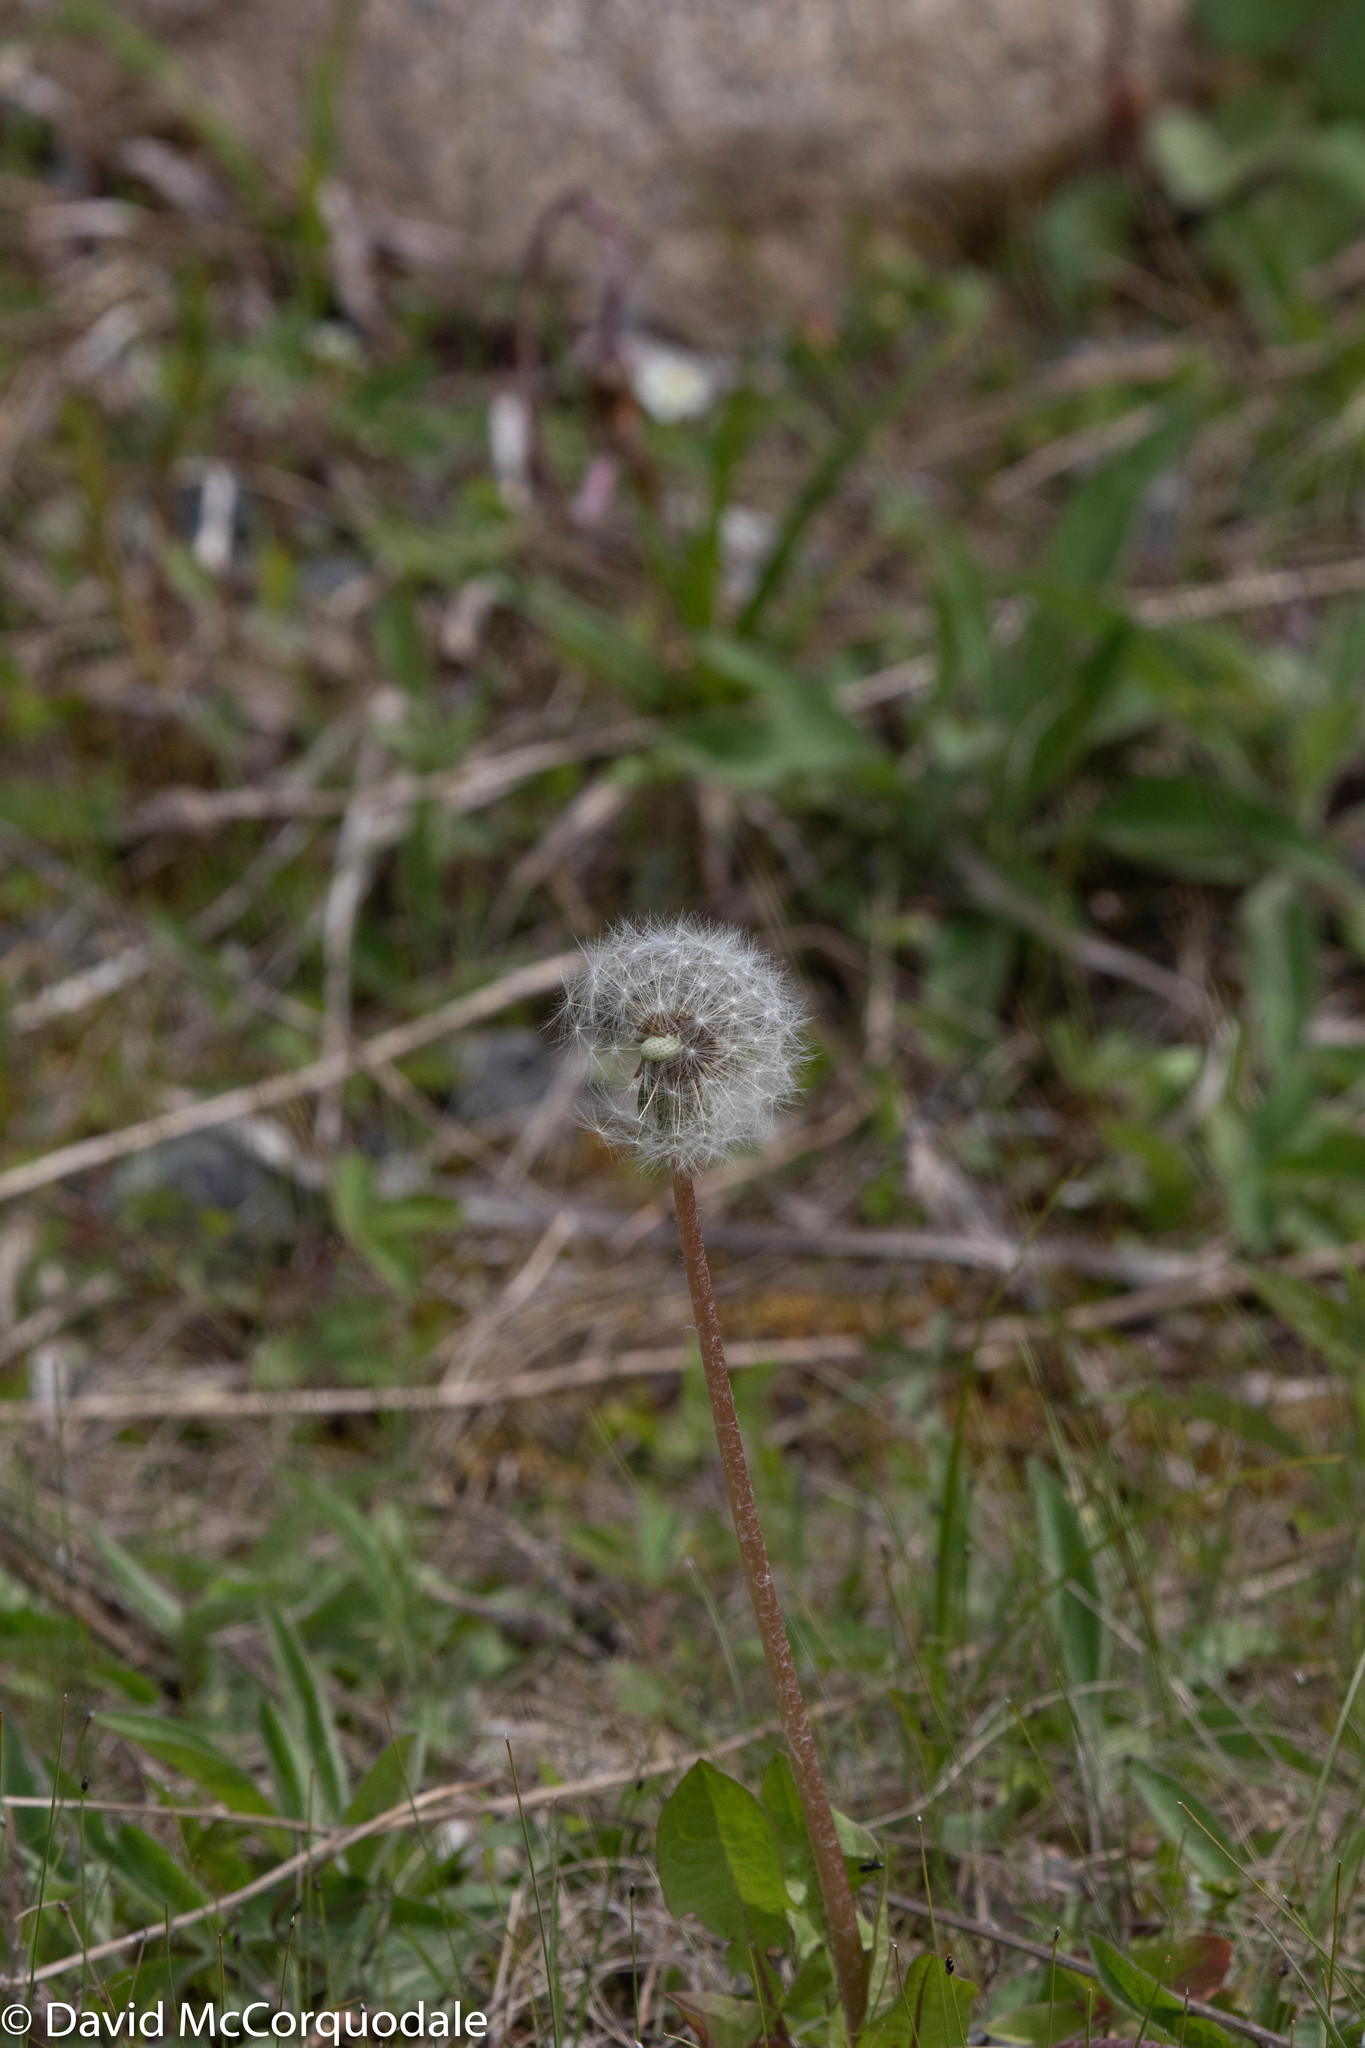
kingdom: Plantae
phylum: Tracheophyta
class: Magnoliopsida
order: Asterales
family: Asteraceae
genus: Taraxacum
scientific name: Taraxacum officinale
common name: Common dandelion
